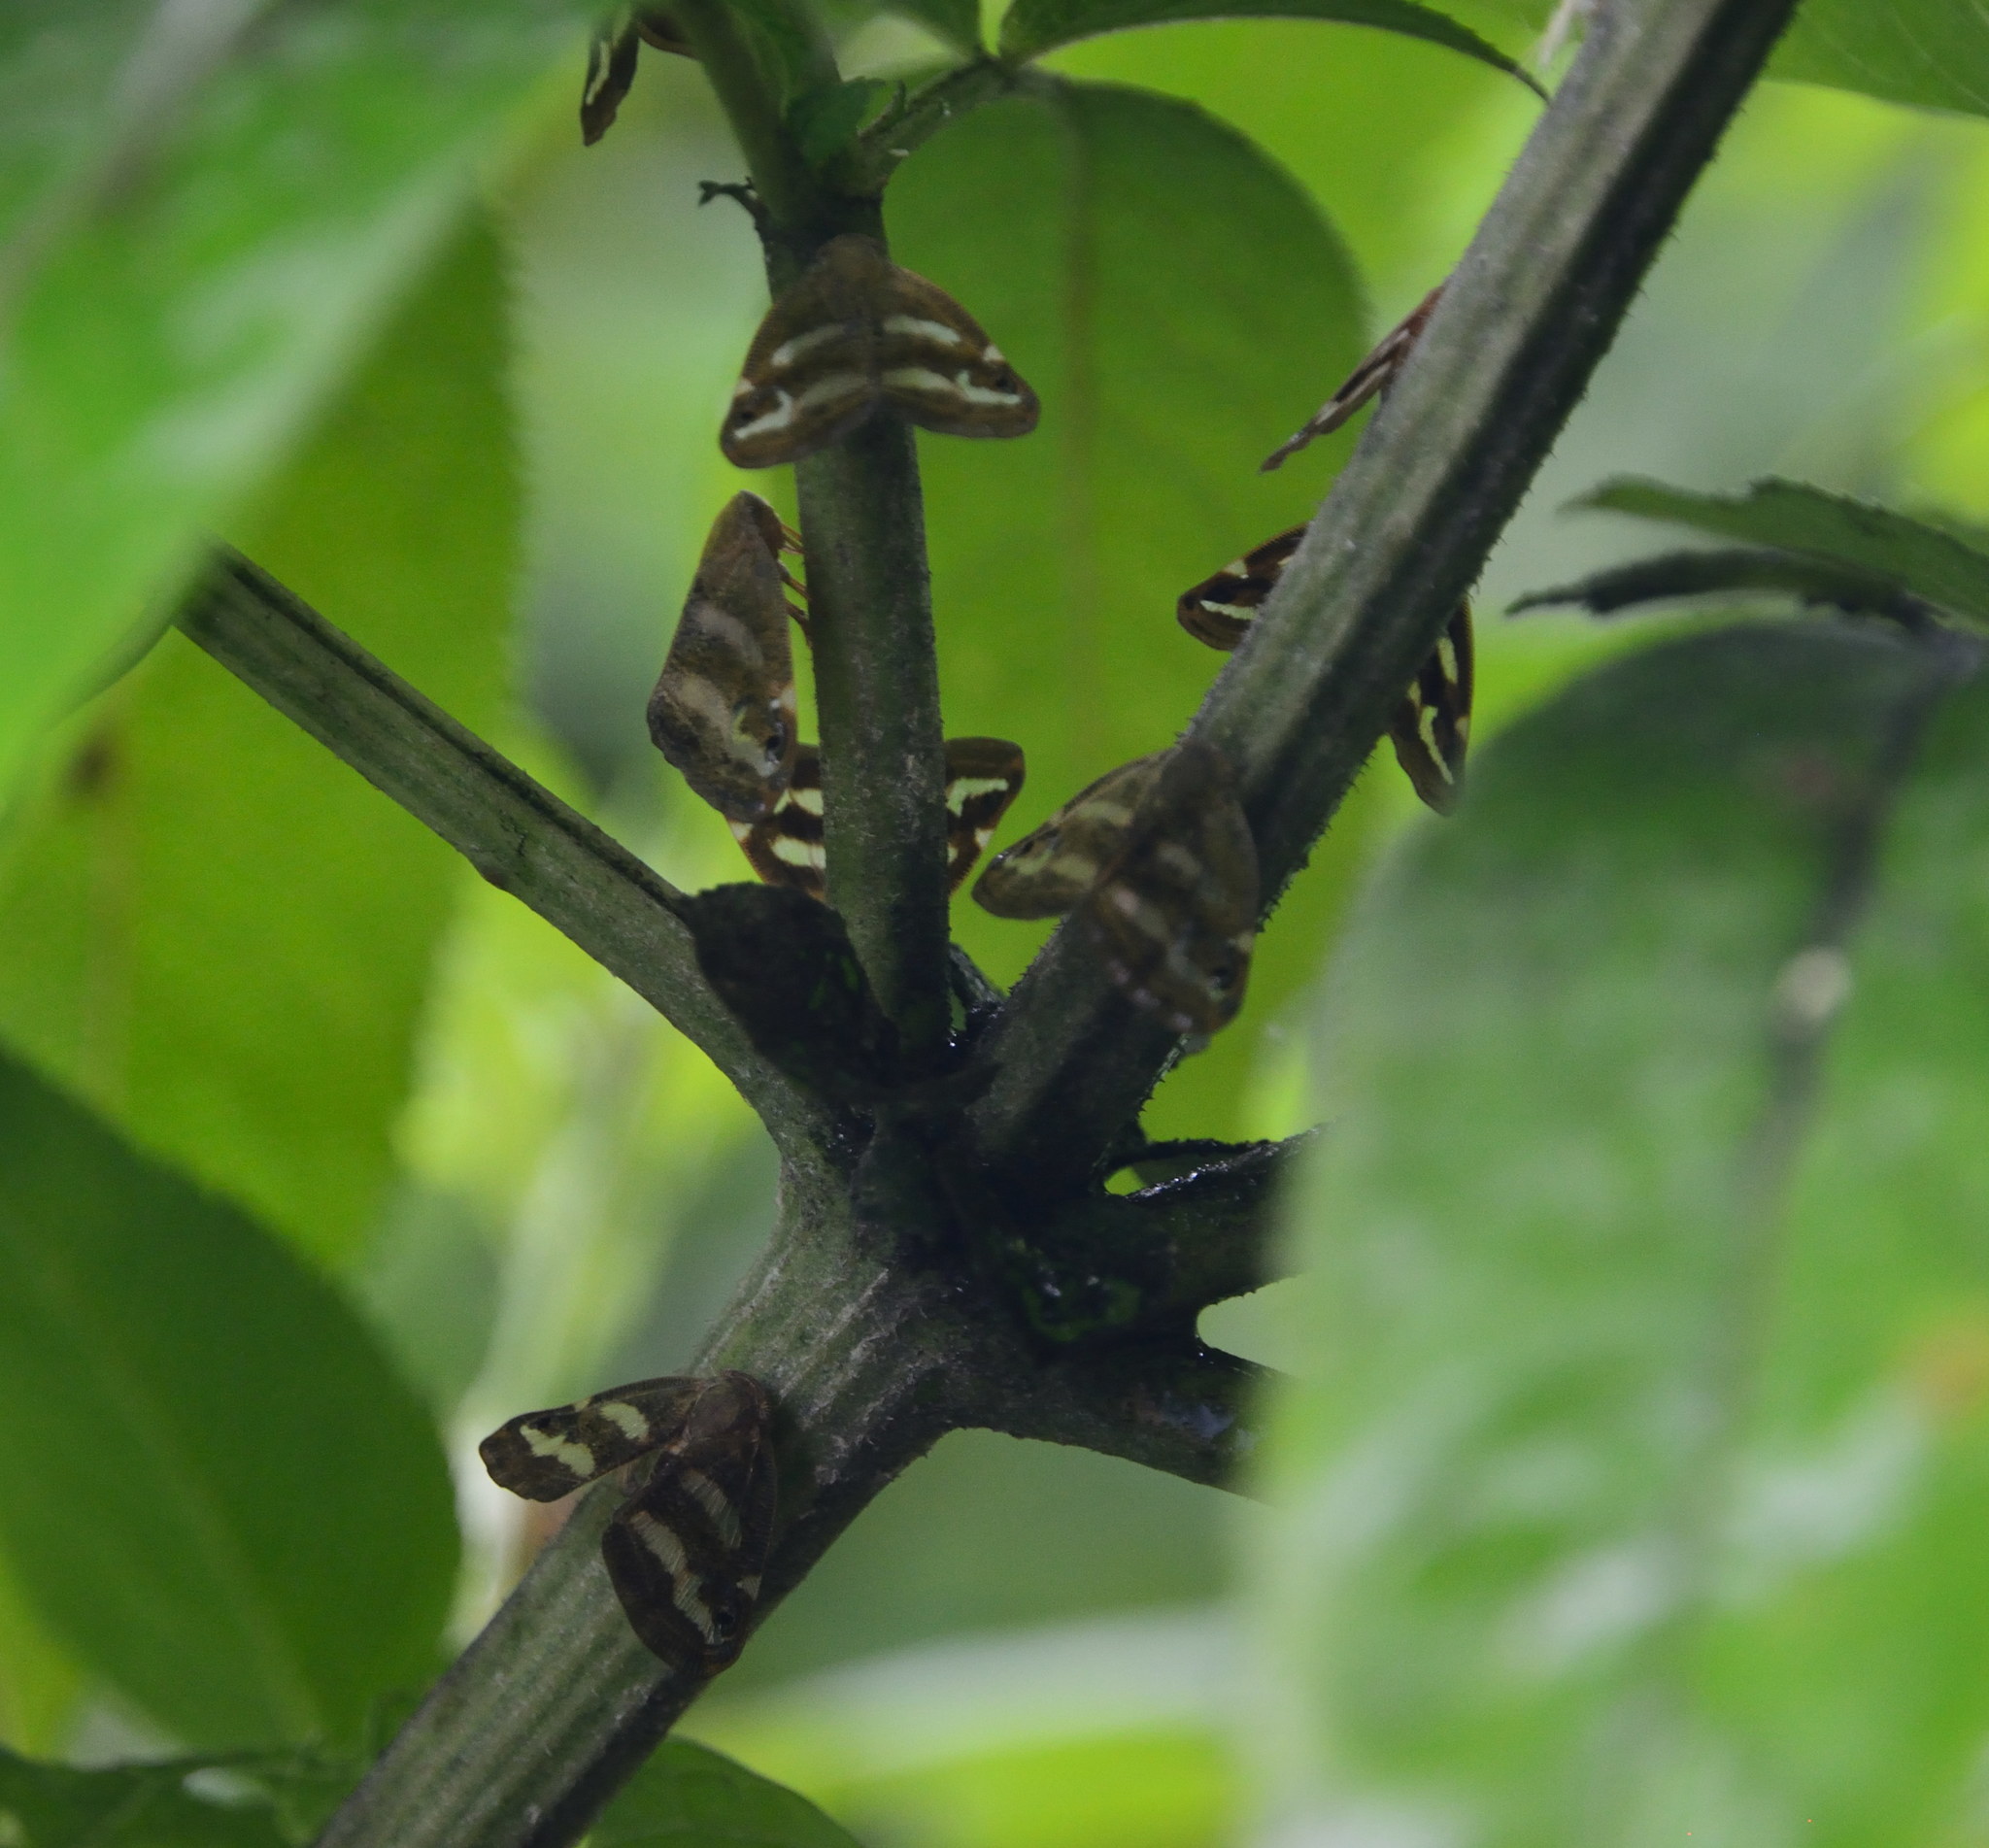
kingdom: Animalia
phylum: Arthropoda
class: Insecta
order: Hemiptera
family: Ricaniidae
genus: Orosanga
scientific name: Orosanga japonica
